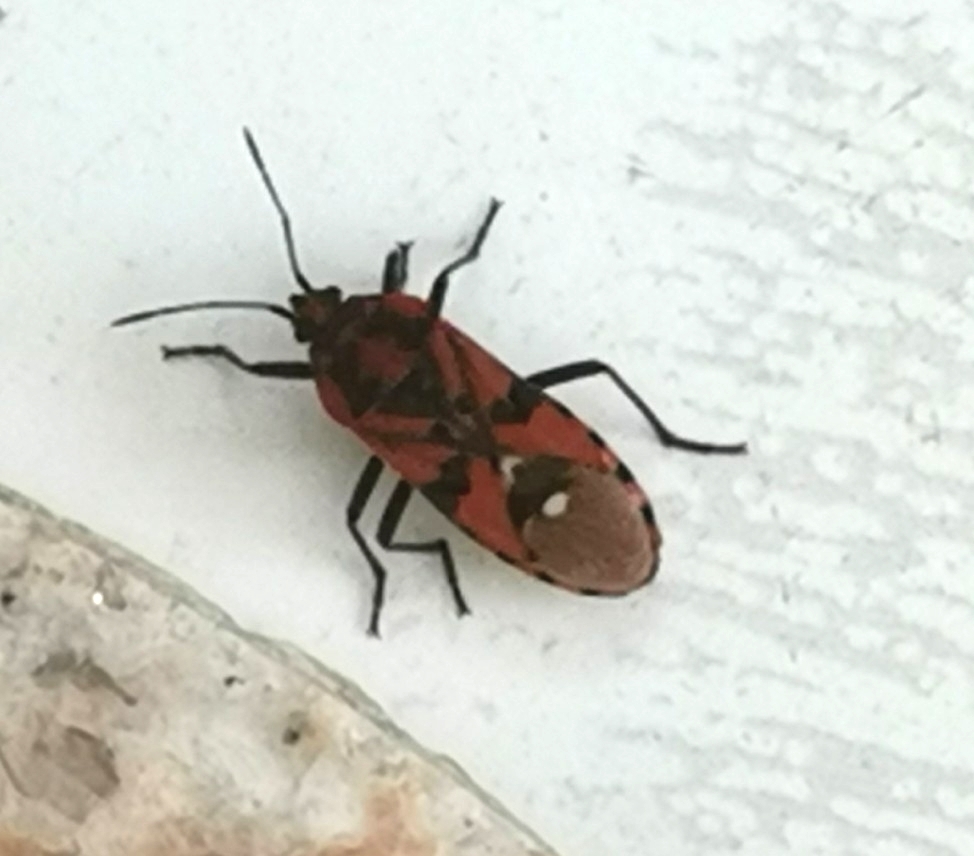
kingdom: Animalia
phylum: Arthropoda
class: Insecta
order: Hemiptera
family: Lygaeidae
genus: Spilostethus
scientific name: Spilostethus pandurus
